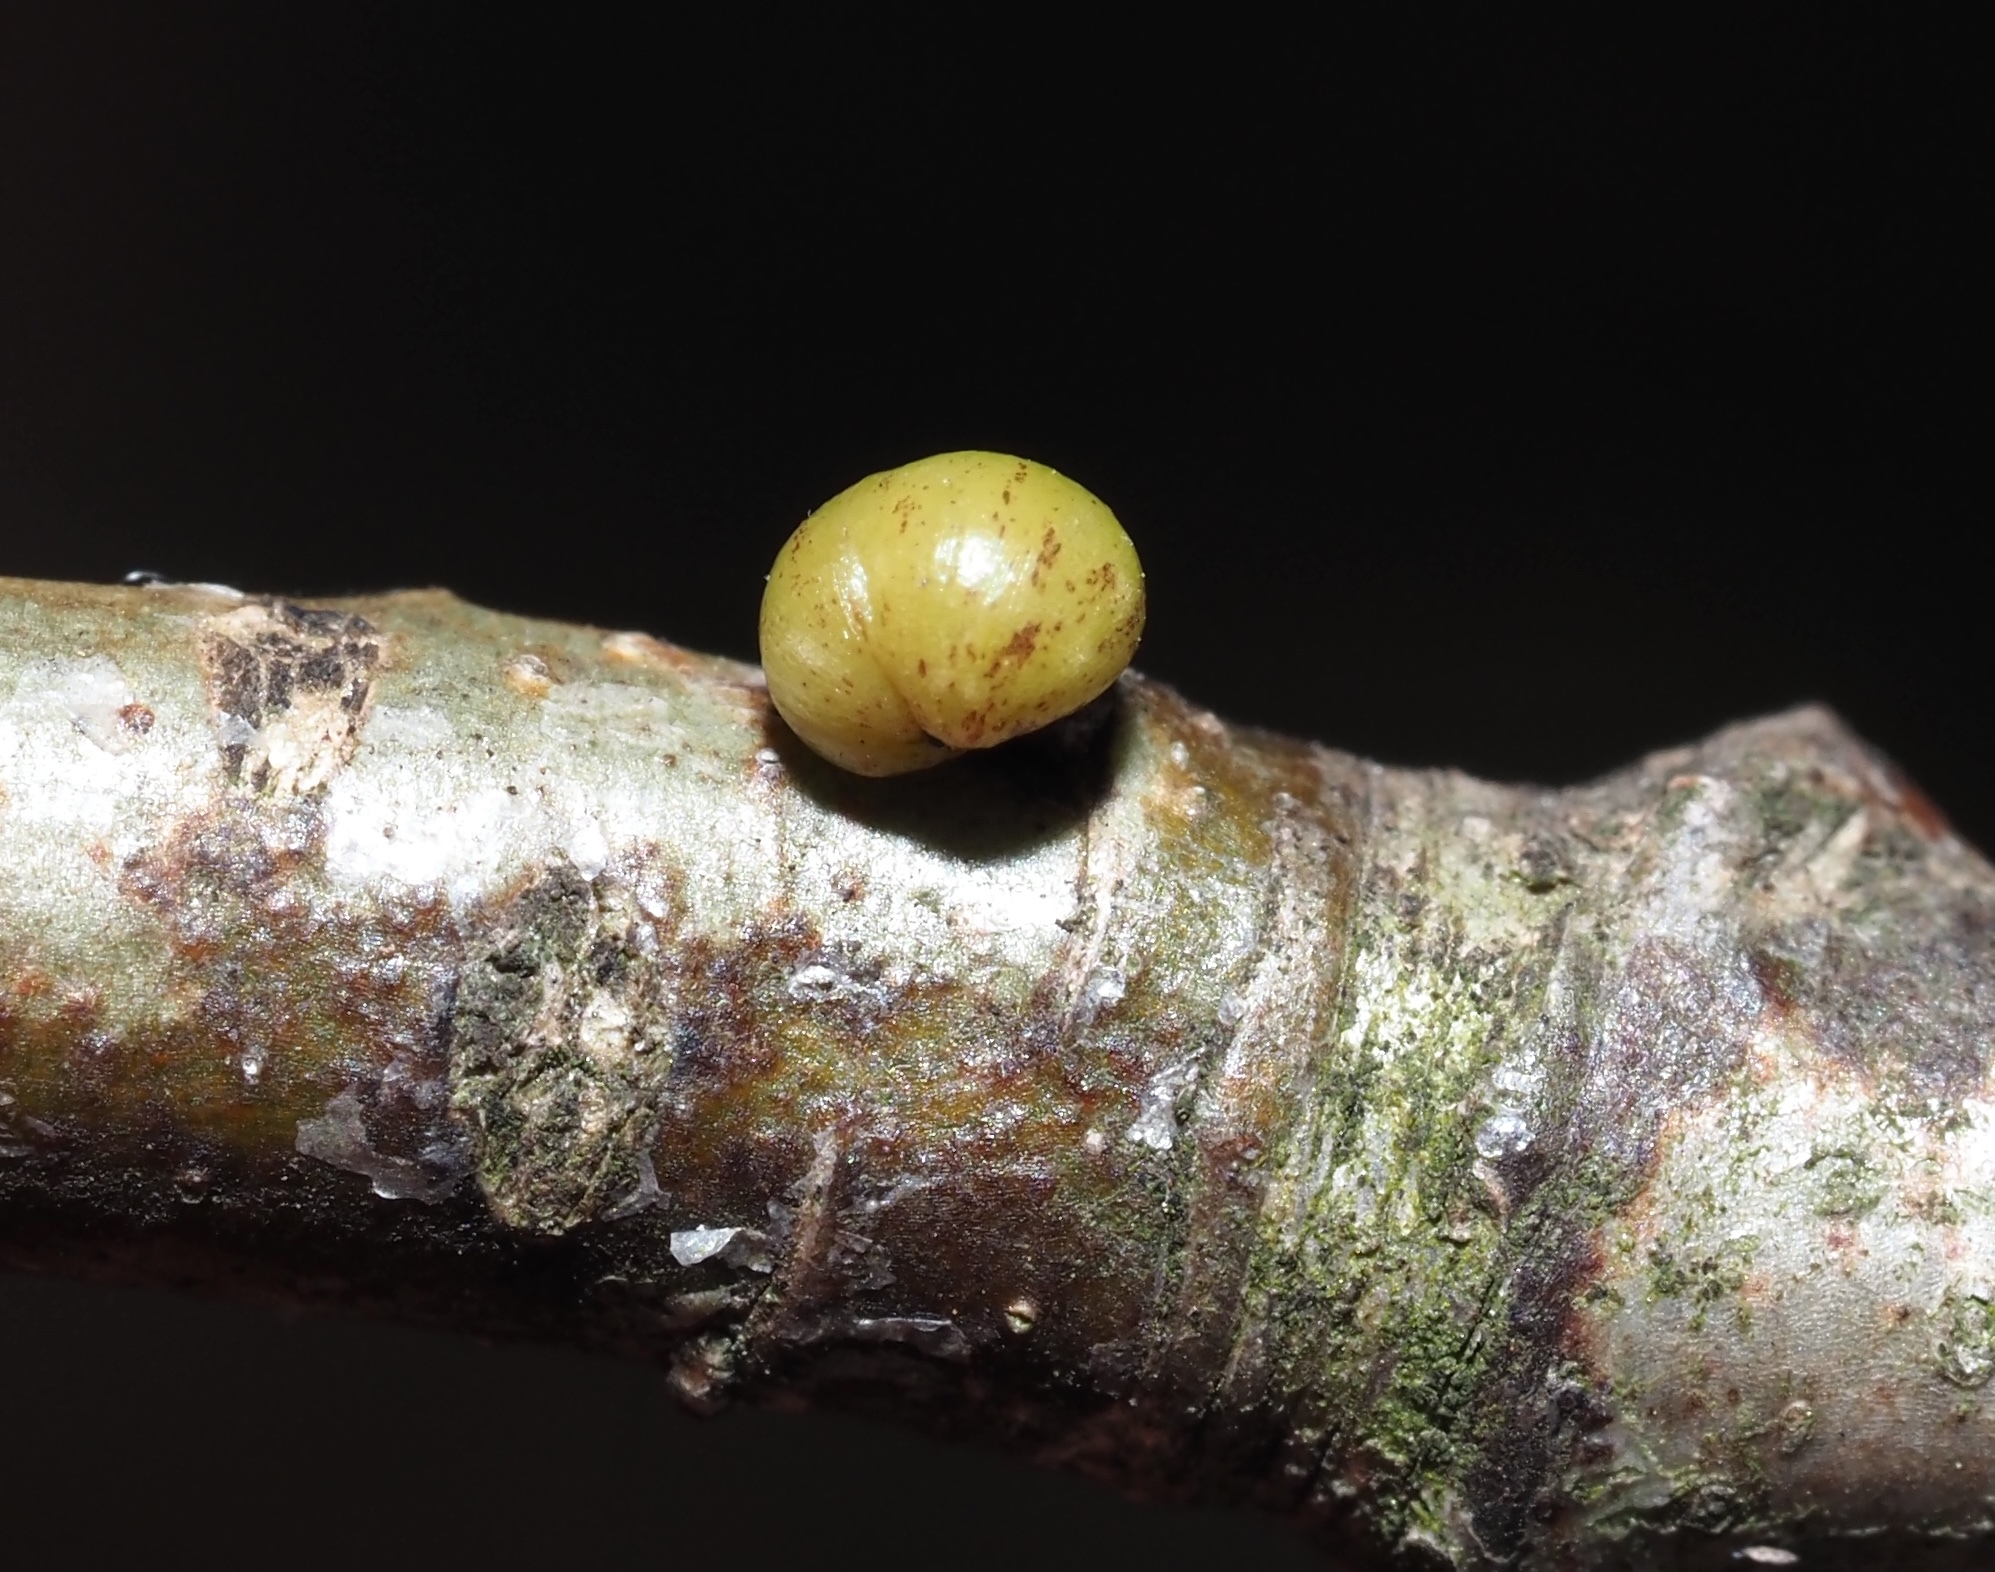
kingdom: Animalia
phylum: Arthropoda
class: Insecta
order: Hymenoptera
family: Cynipidae
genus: Andricus
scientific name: Andricus
